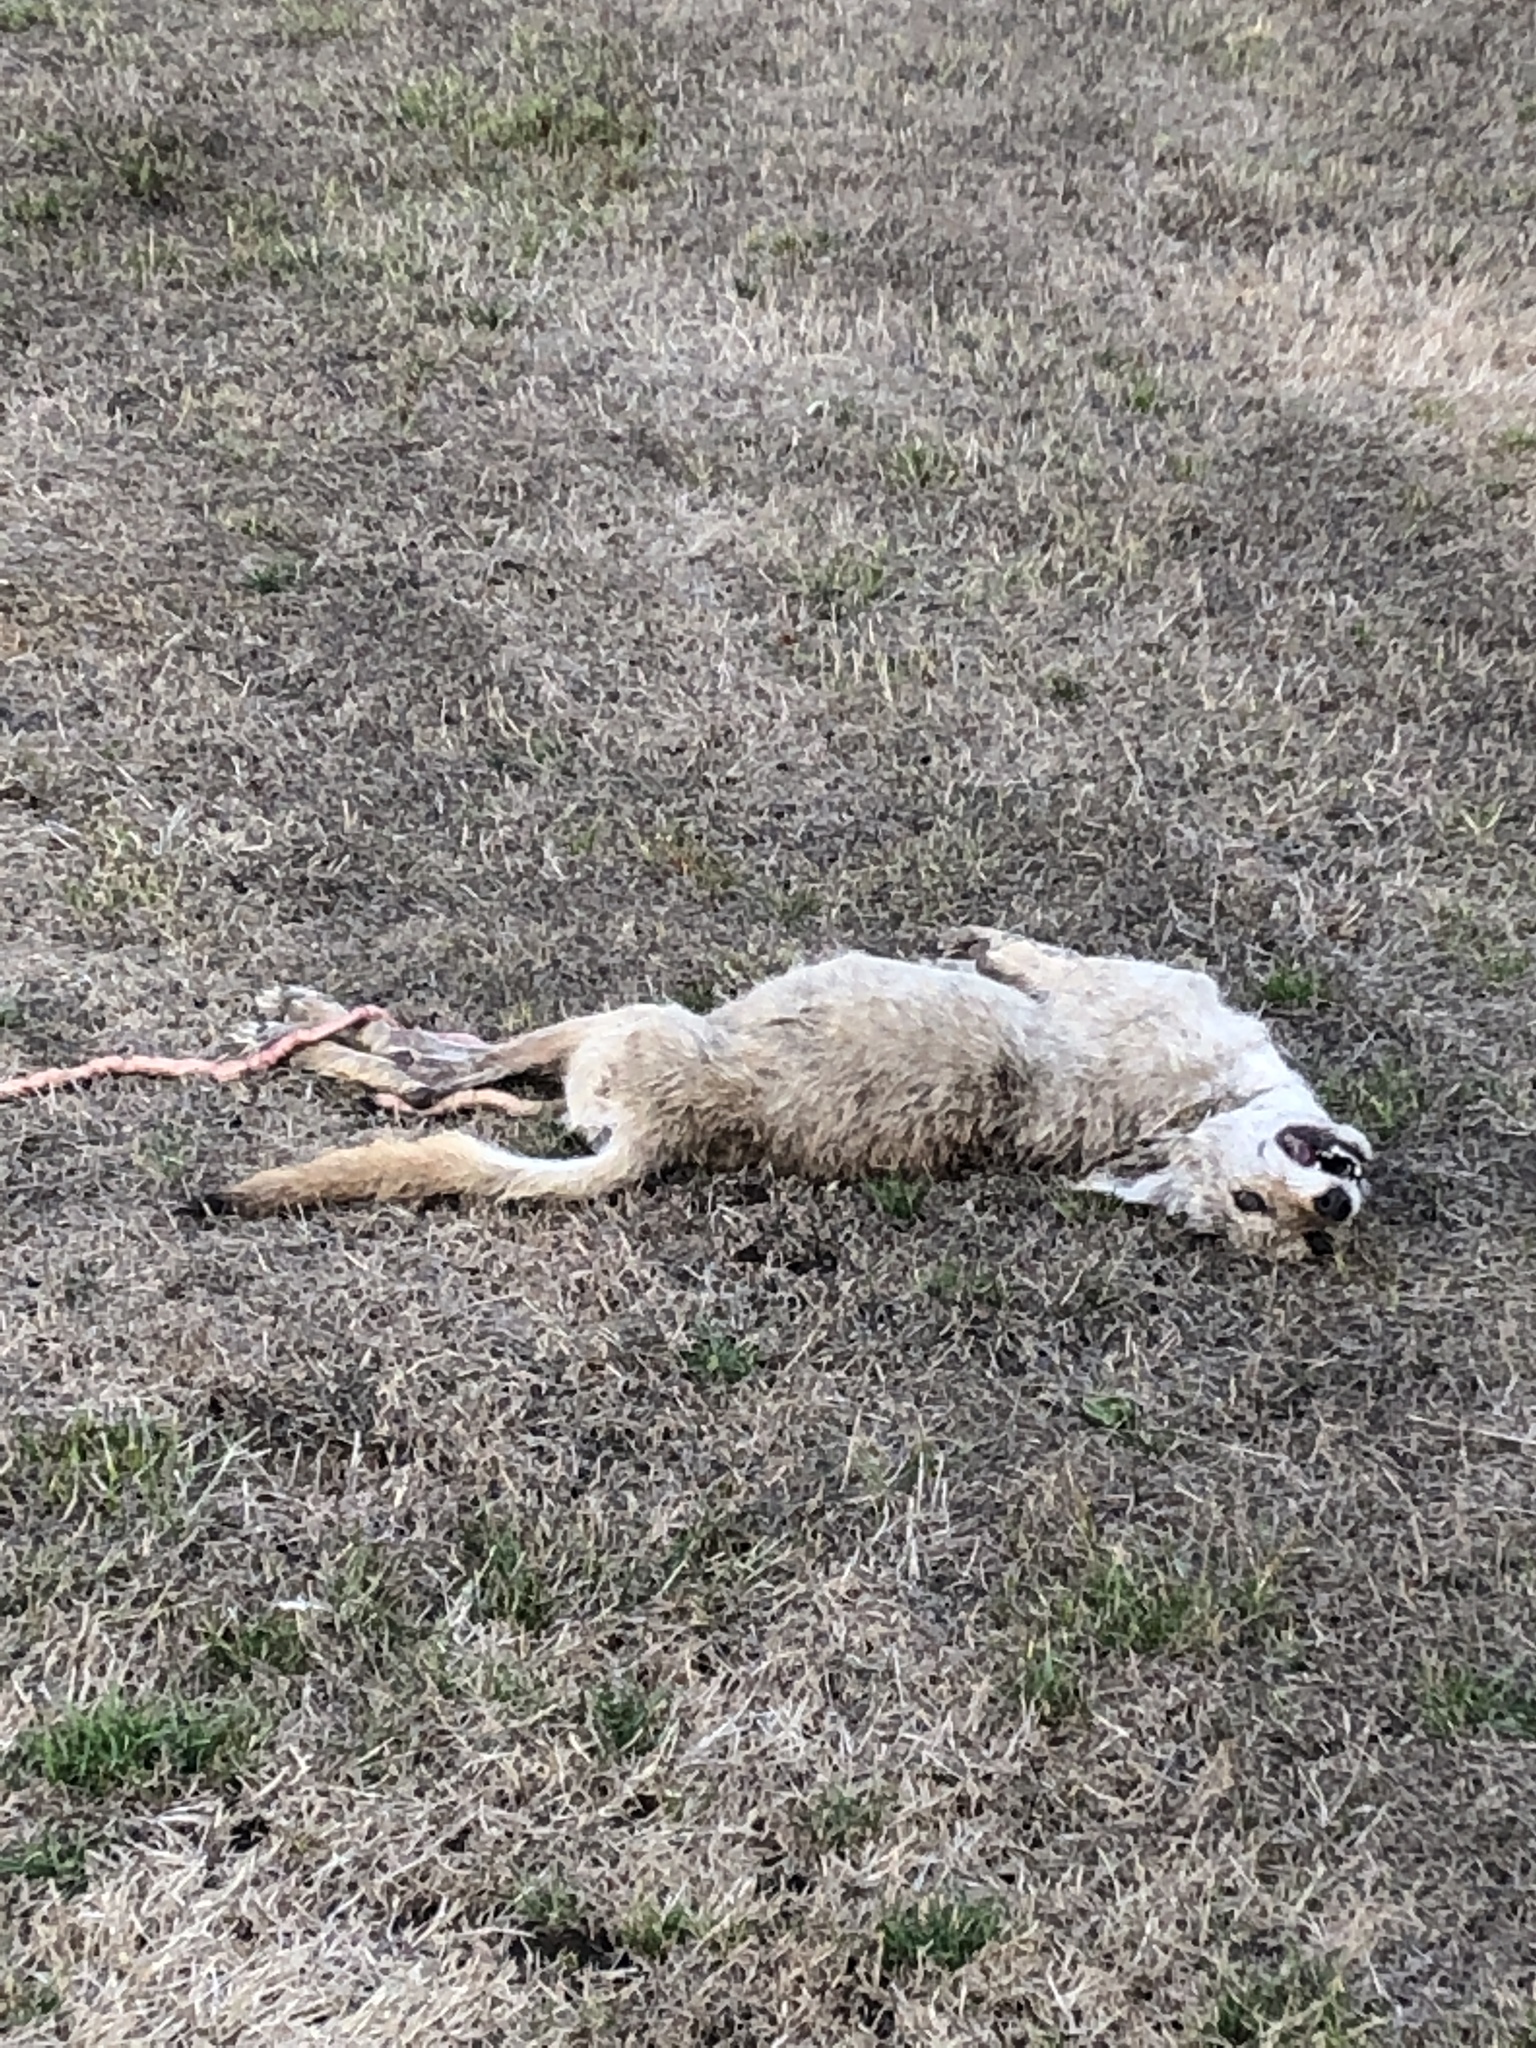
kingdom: Animalia
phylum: Chordata
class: Mammalia
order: Carnivora
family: Canidae
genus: Canis
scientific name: Canis latrans
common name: Coyote
